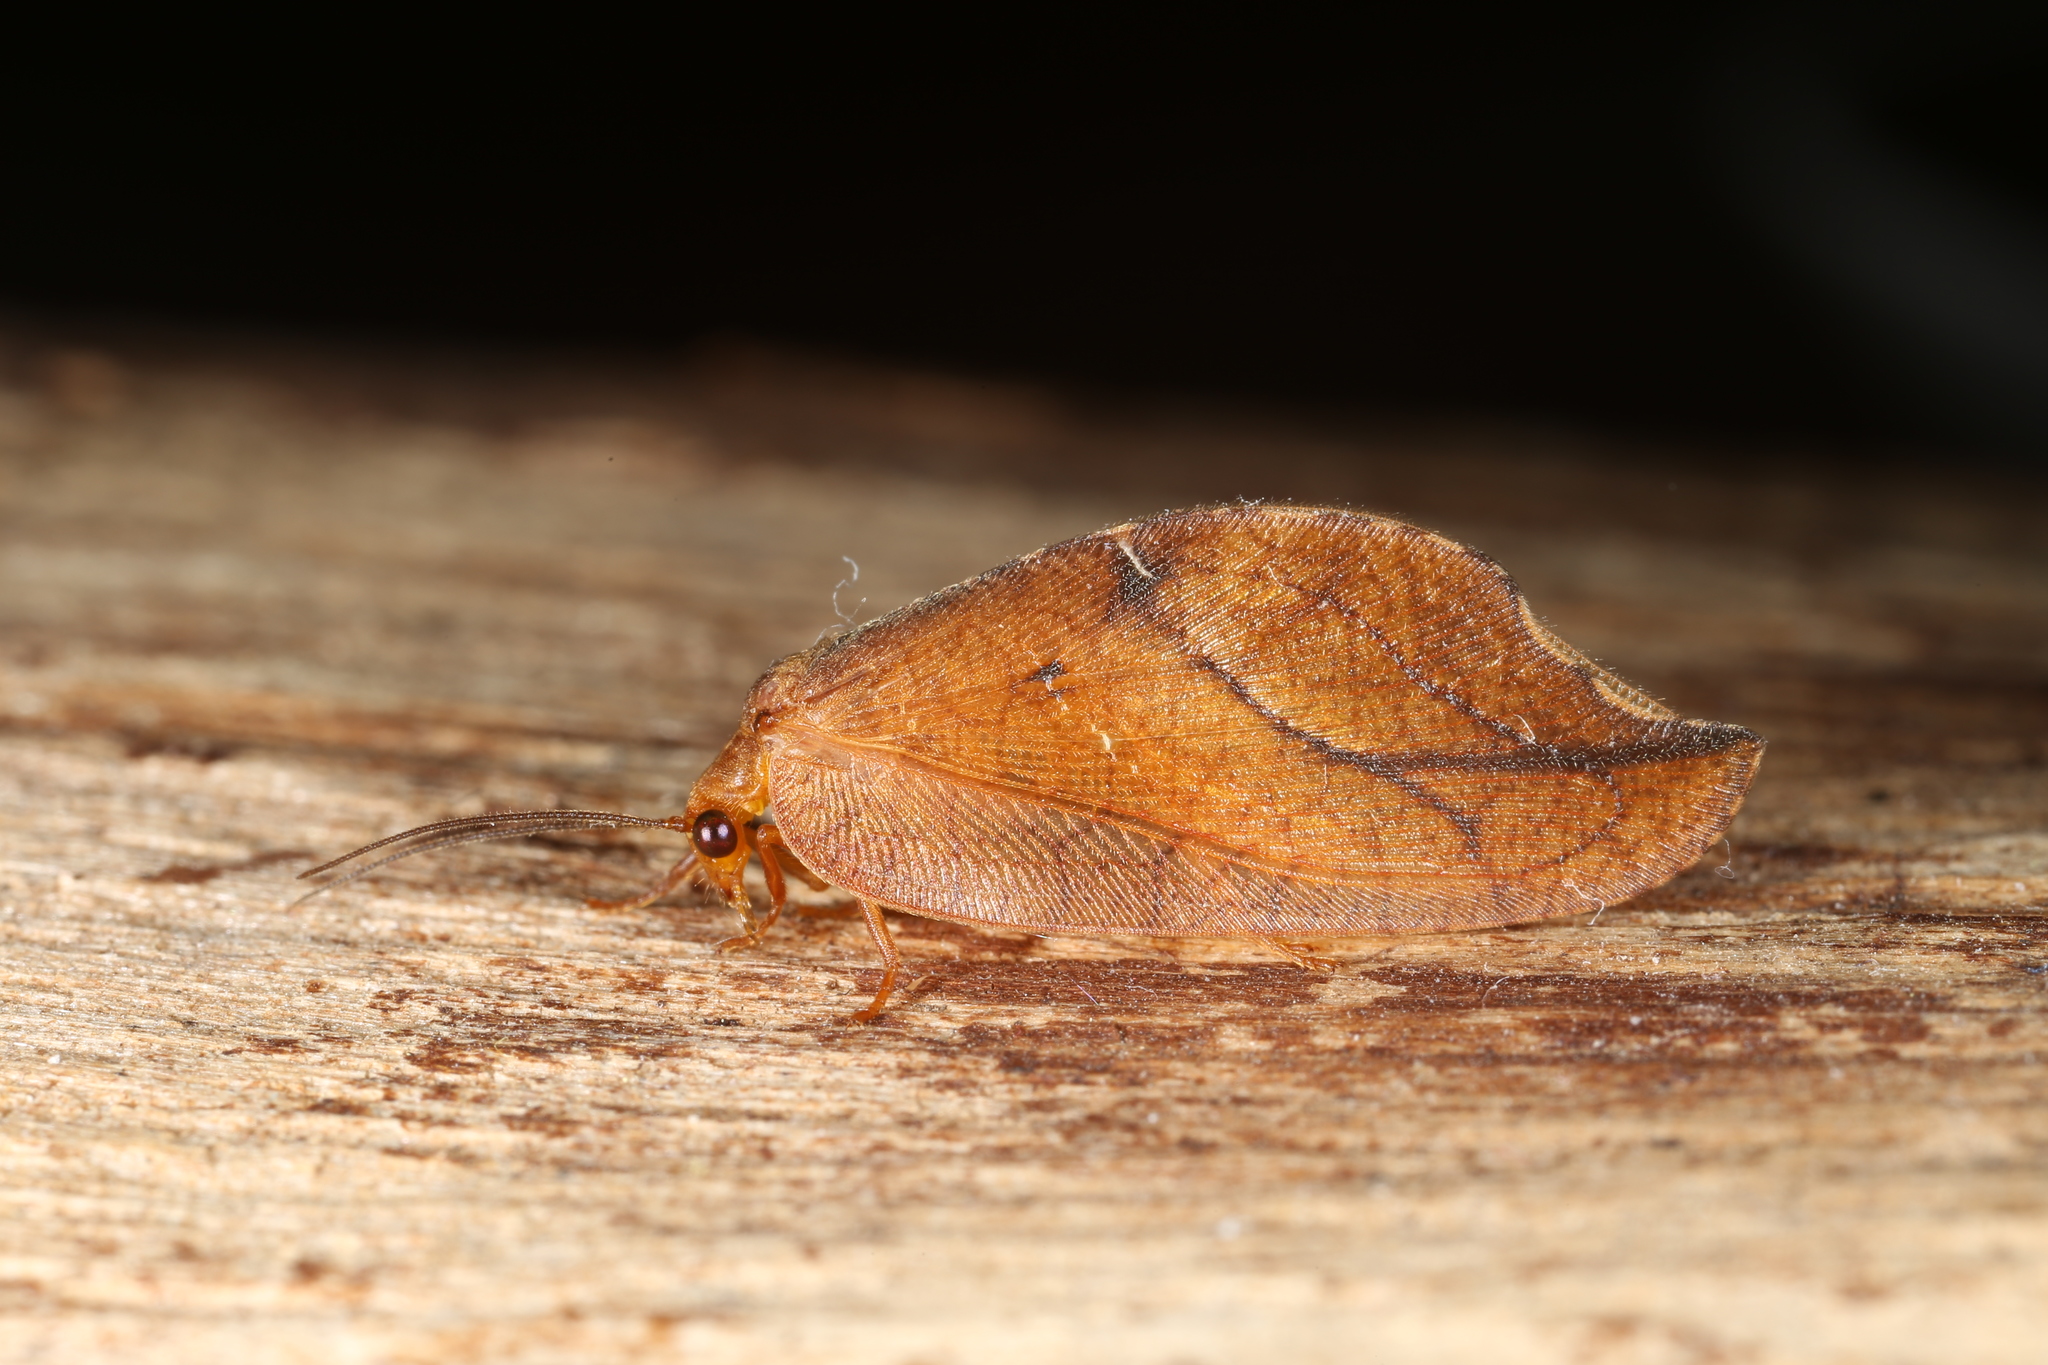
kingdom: Animalia
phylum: Arthropoda
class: Insecta
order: Neuroptera
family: Hemerobiidae
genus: Drepanepteryx
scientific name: Drepanepteryx phalaenoides
